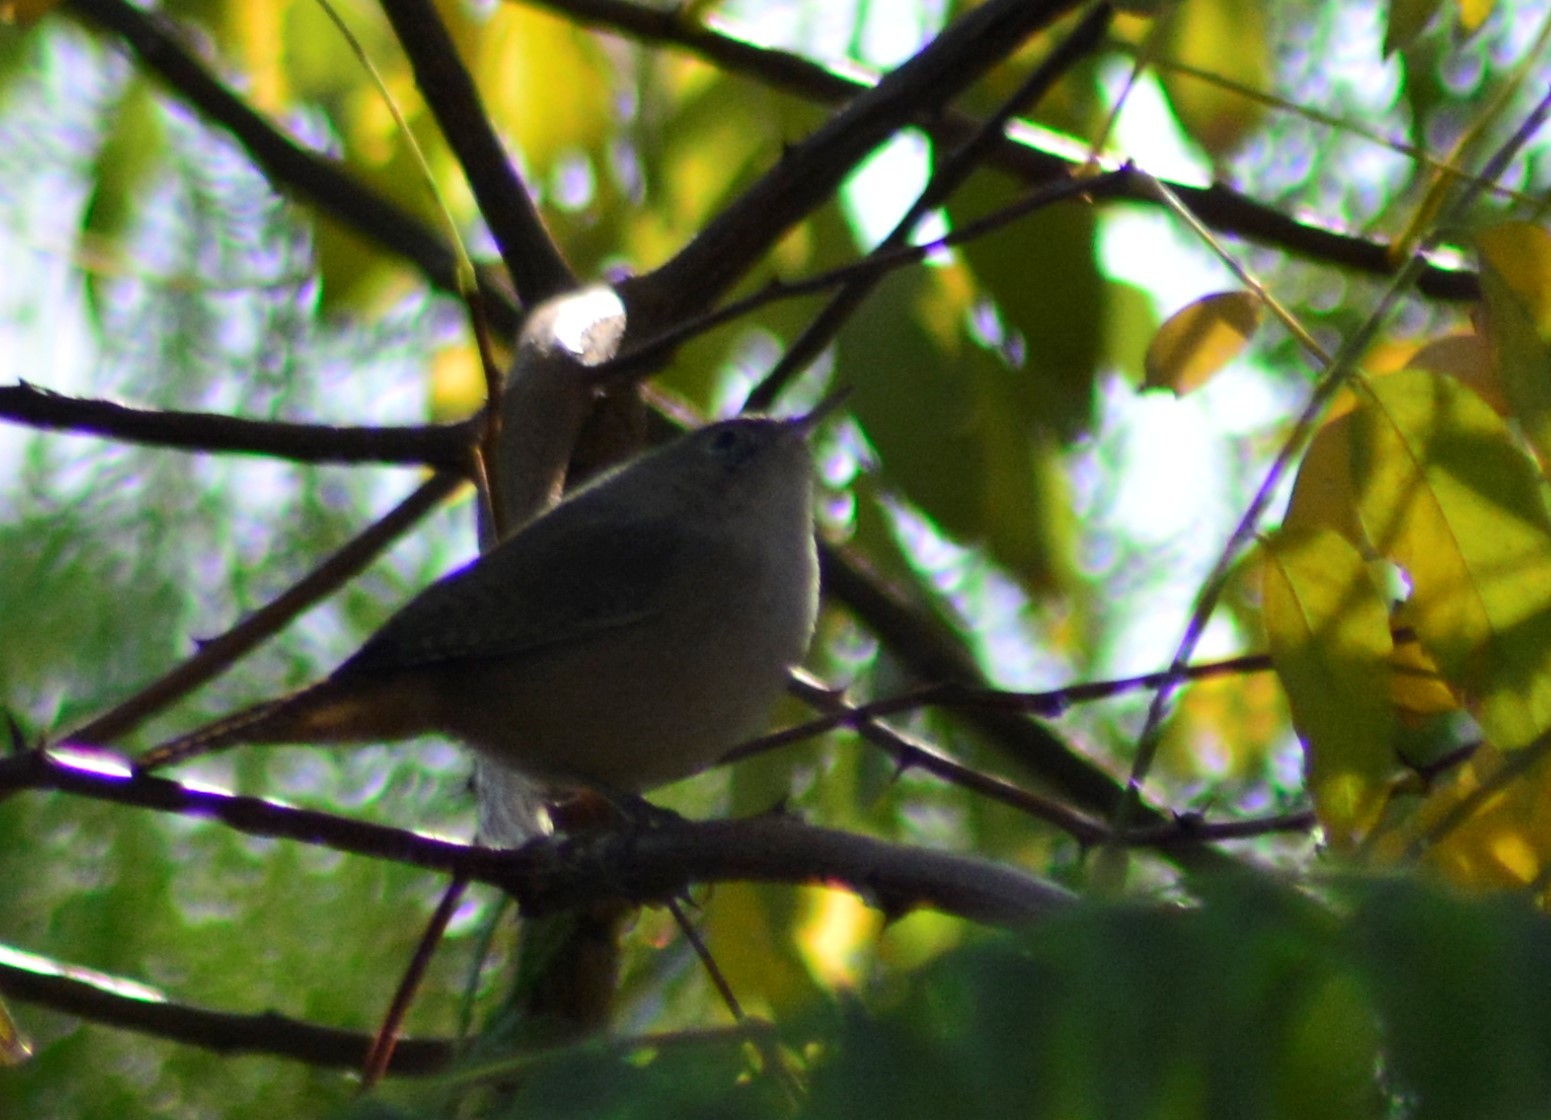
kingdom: Animalia
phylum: Chordata
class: Aves
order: Passeriformes
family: Troglodytidae
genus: Troglodytes
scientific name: Troglodytes aedon
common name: House wren
